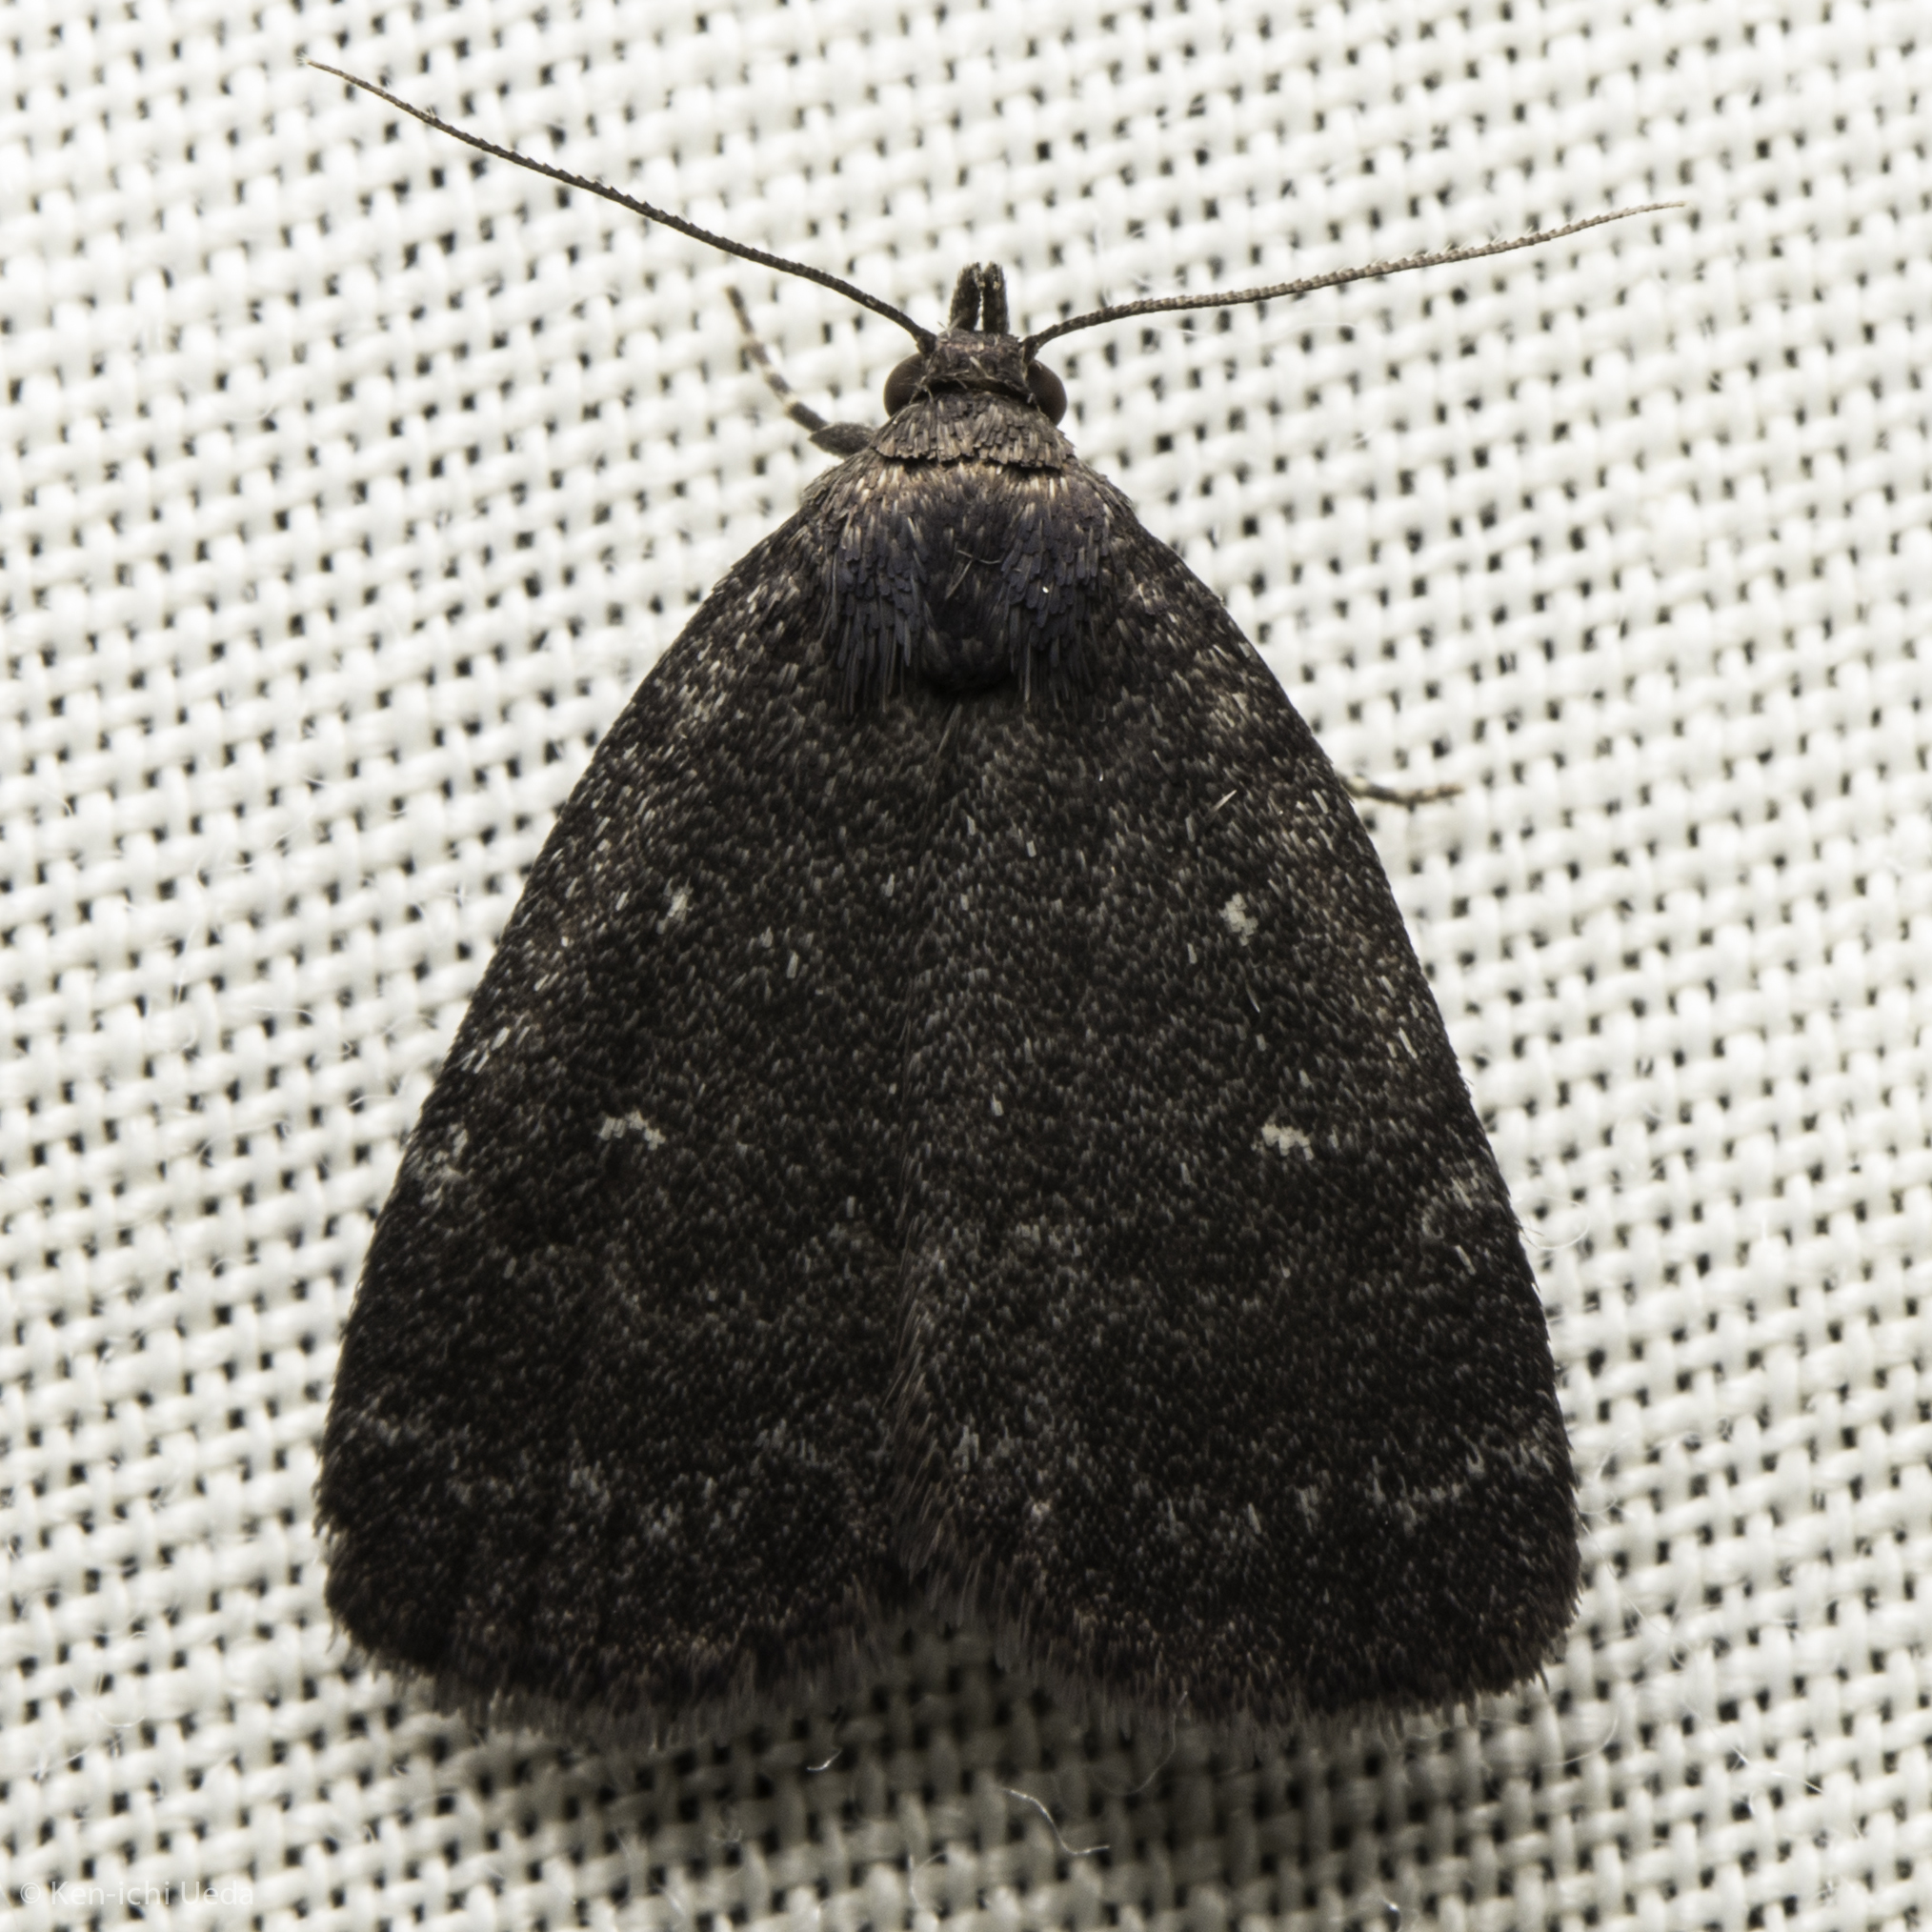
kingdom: Animalia
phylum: Arthropoda
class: Insecta
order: Lepidoptera
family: Erebidae
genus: Idia
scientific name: Idia rotundalis
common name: Rotund idia moth
